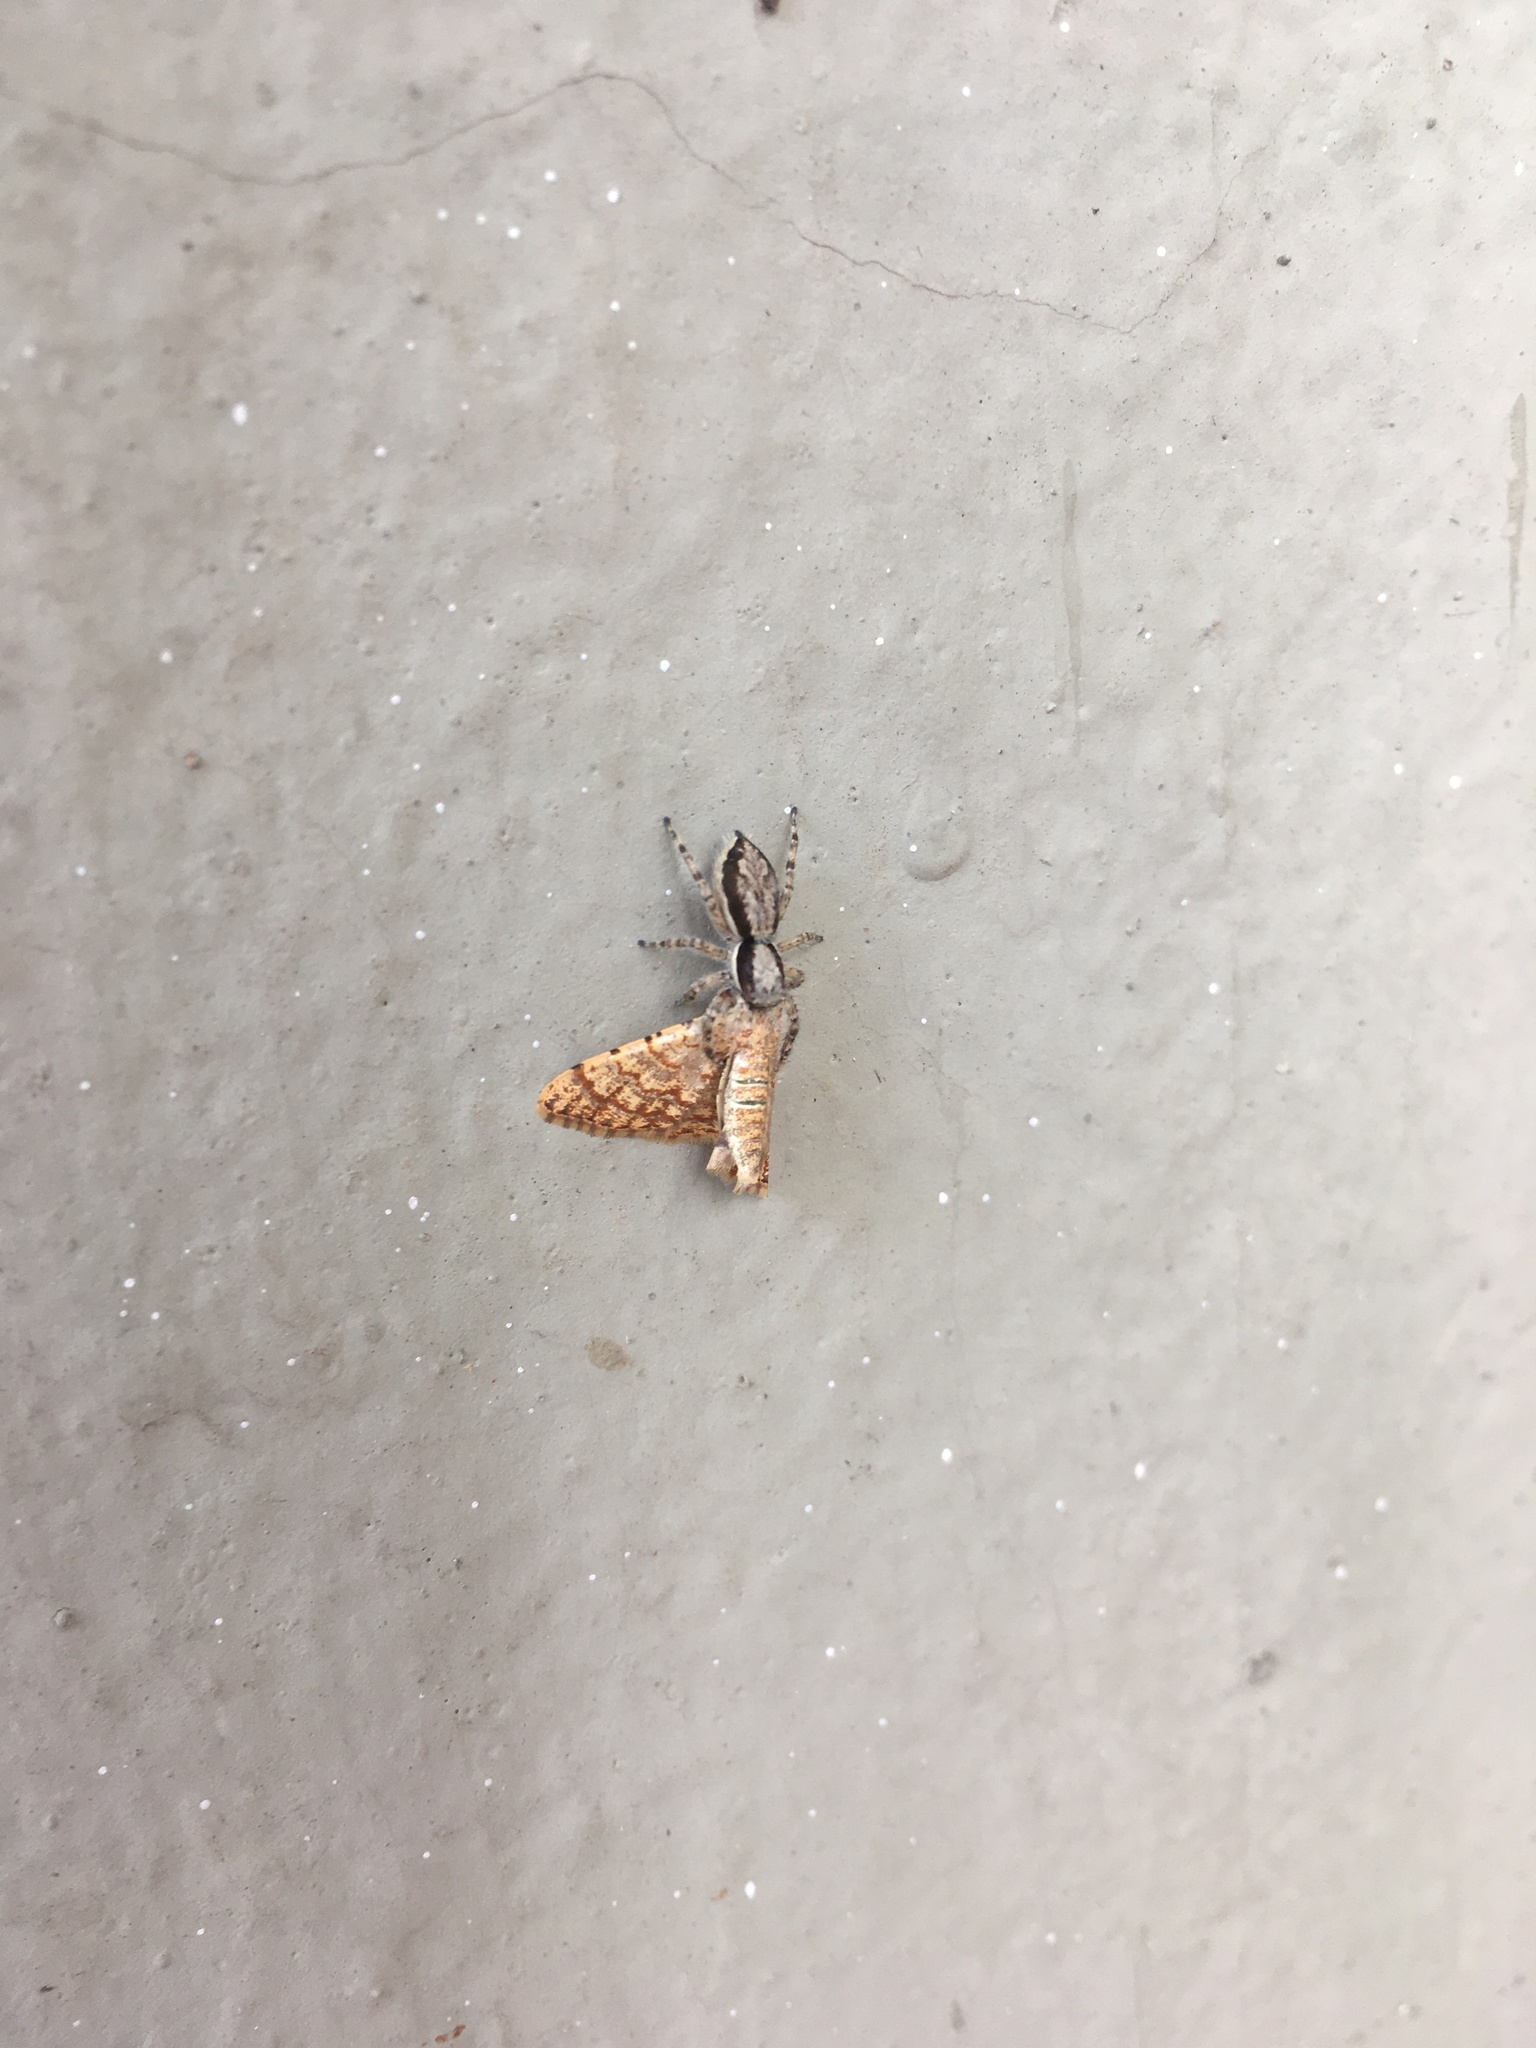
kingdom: Animalia
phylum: Arthropoda
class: Arachnida
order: Araneae
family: Salticidae
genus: Menemerus
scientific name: Menemerus bivittatus
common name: Gray wall jumper
